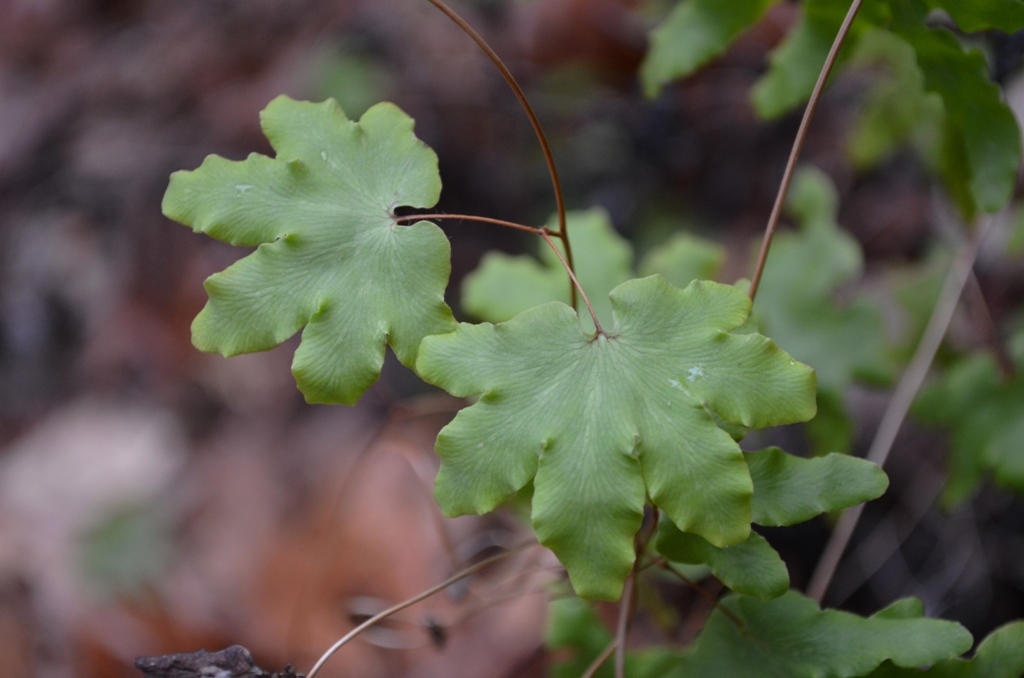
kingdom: Plantae
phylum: Tracheophyta
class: Polypodiopsida
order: Schizaeales
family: Lygodiaceae
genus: Lygodium
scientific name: Lygodium palmatum
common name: American climbing fern
